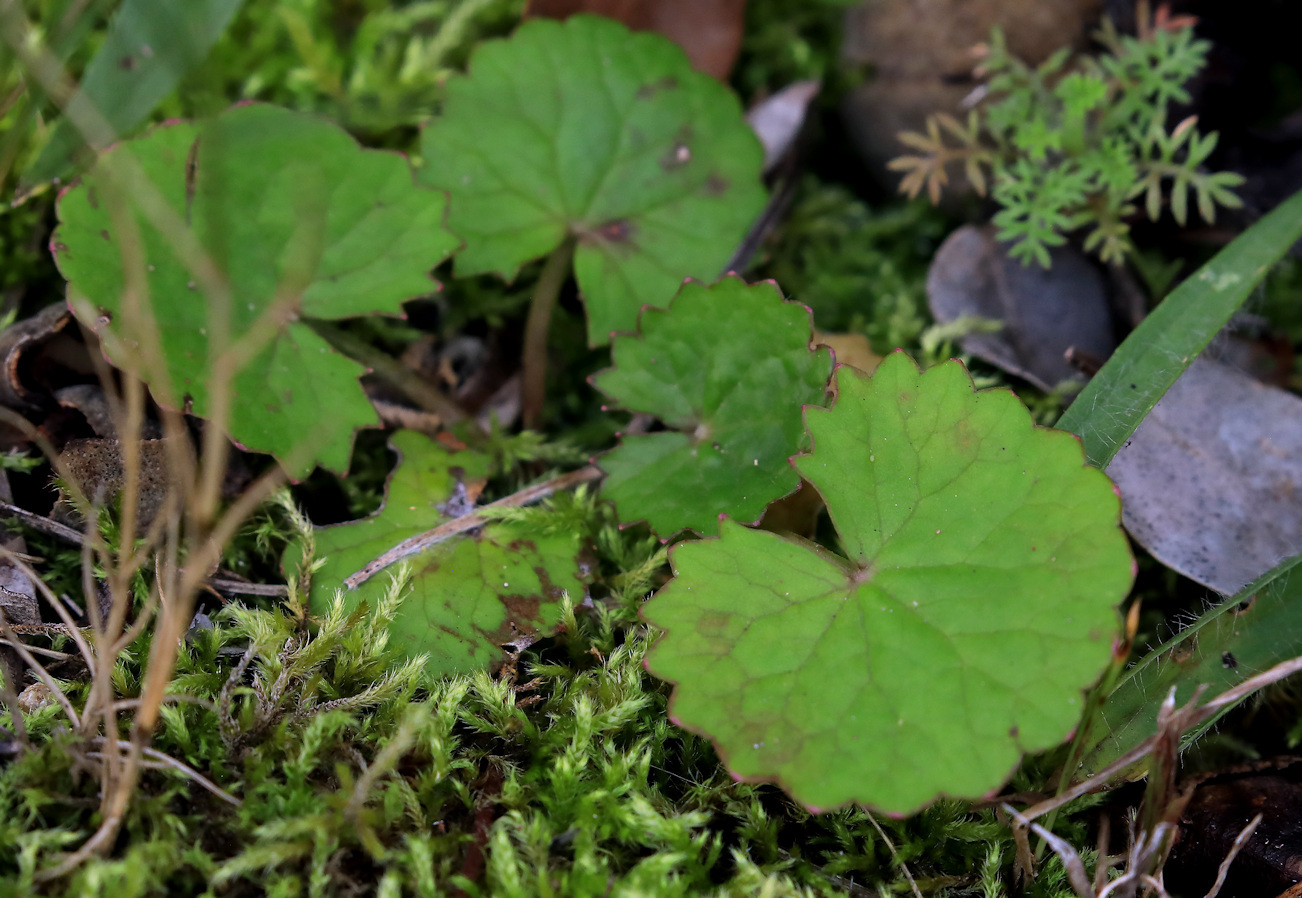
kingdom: Plantae
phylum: Tracheophyta
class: Magnoliopsida
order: Apiales
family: Apiaceae
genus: Centella
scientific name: Centella asiatica
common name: Spadeleaf
